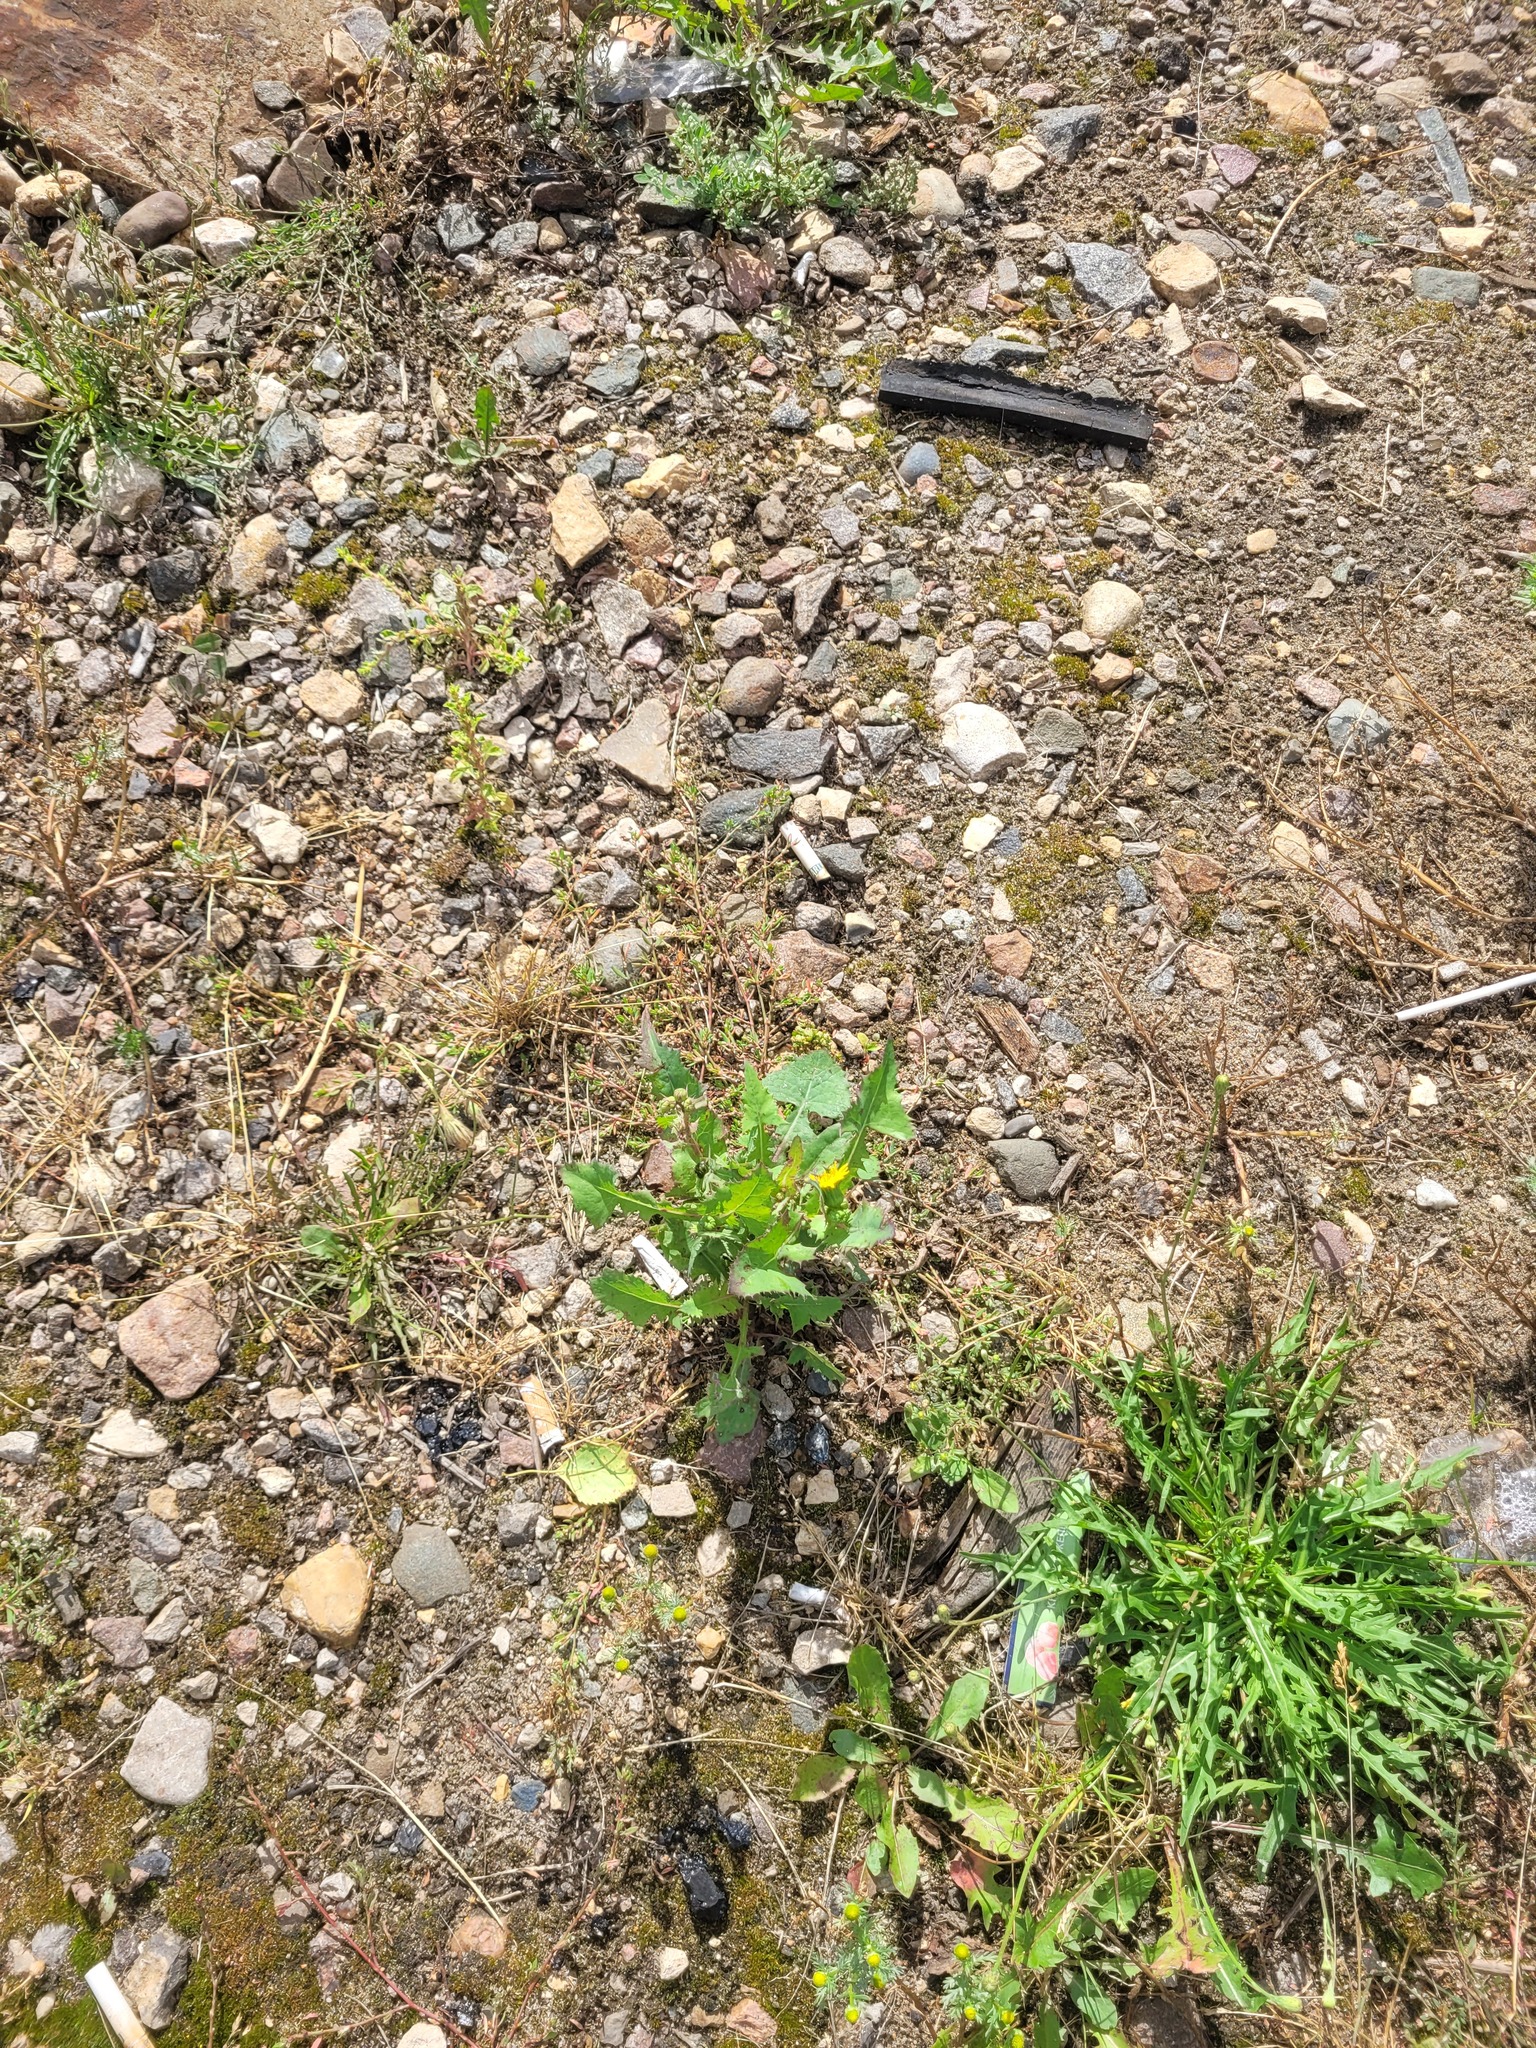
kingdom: Plantae
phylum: Tracheophyta
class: Magnoliopsida
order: Asterales
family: Asteraceae
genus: Sonchus
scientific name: Sonchus oleraceus
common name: Common sowthistle
